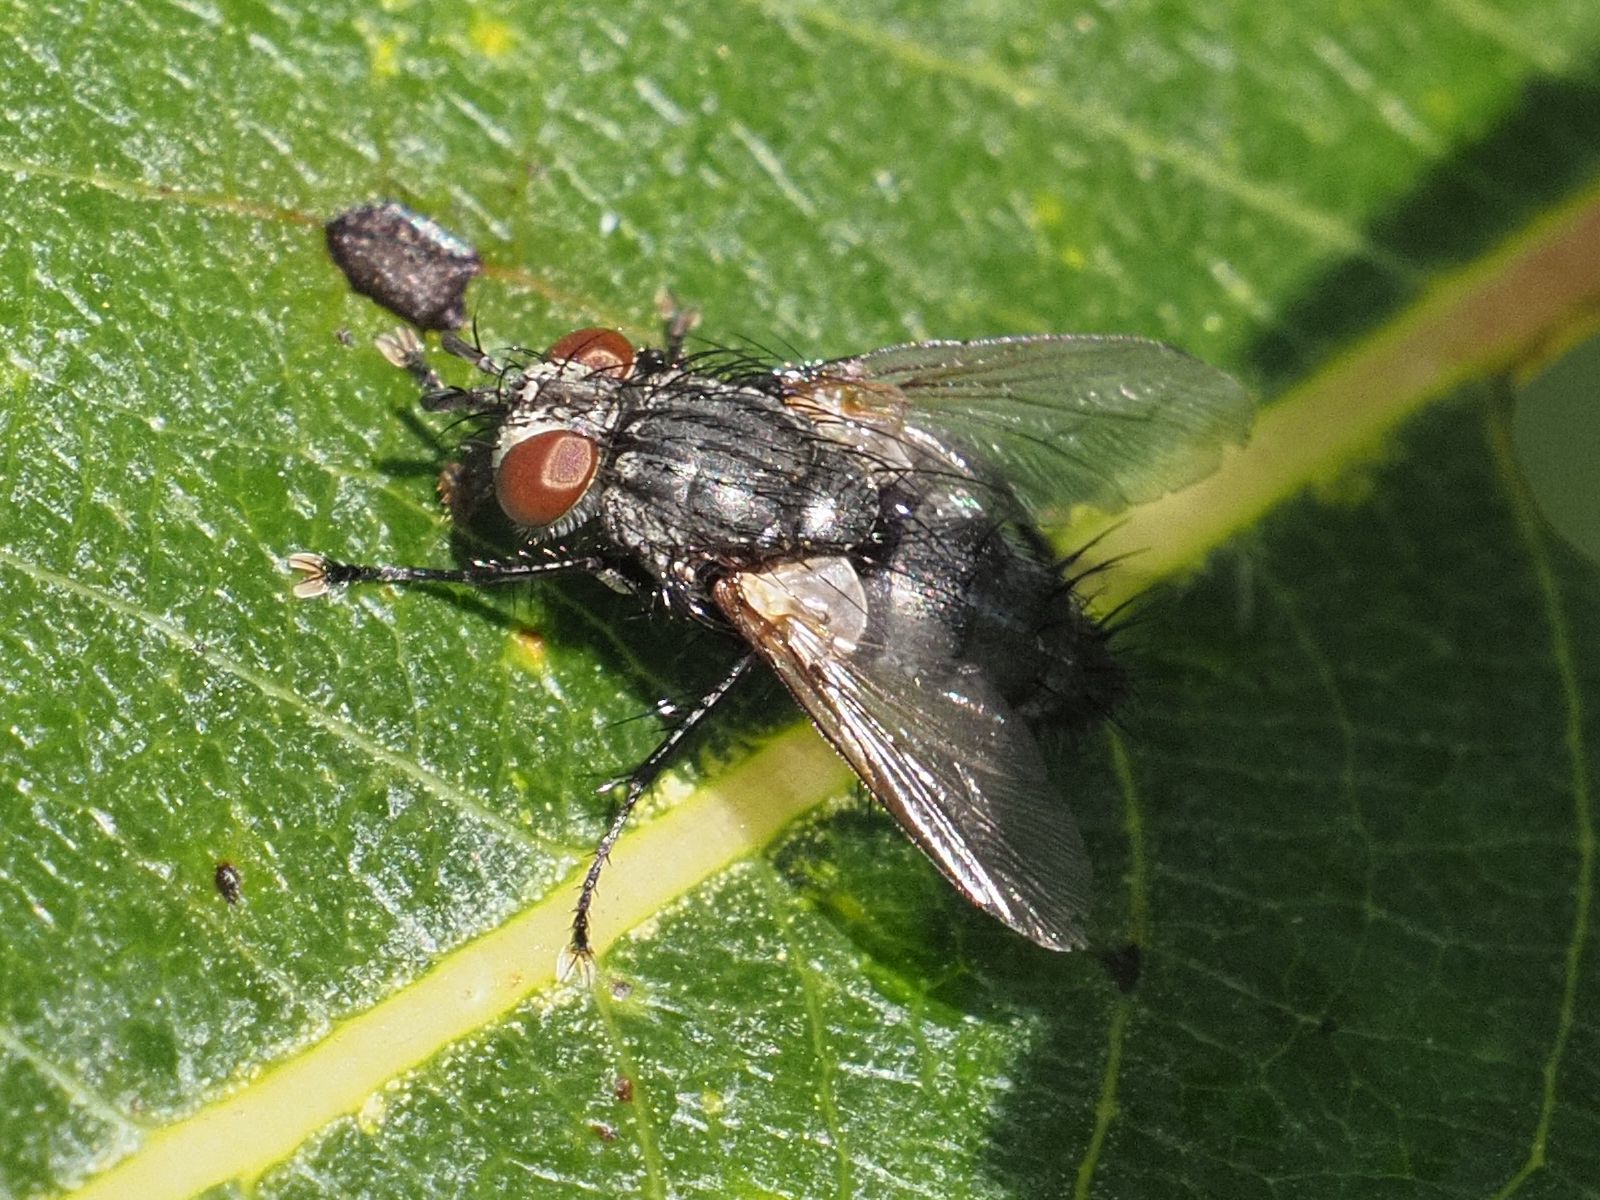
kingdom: Animalia
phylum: Arthropoda
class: Insecta
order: Diptera
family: Tachinidae
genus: Voria
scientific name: Voria ruralis
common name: Parasitic fly
